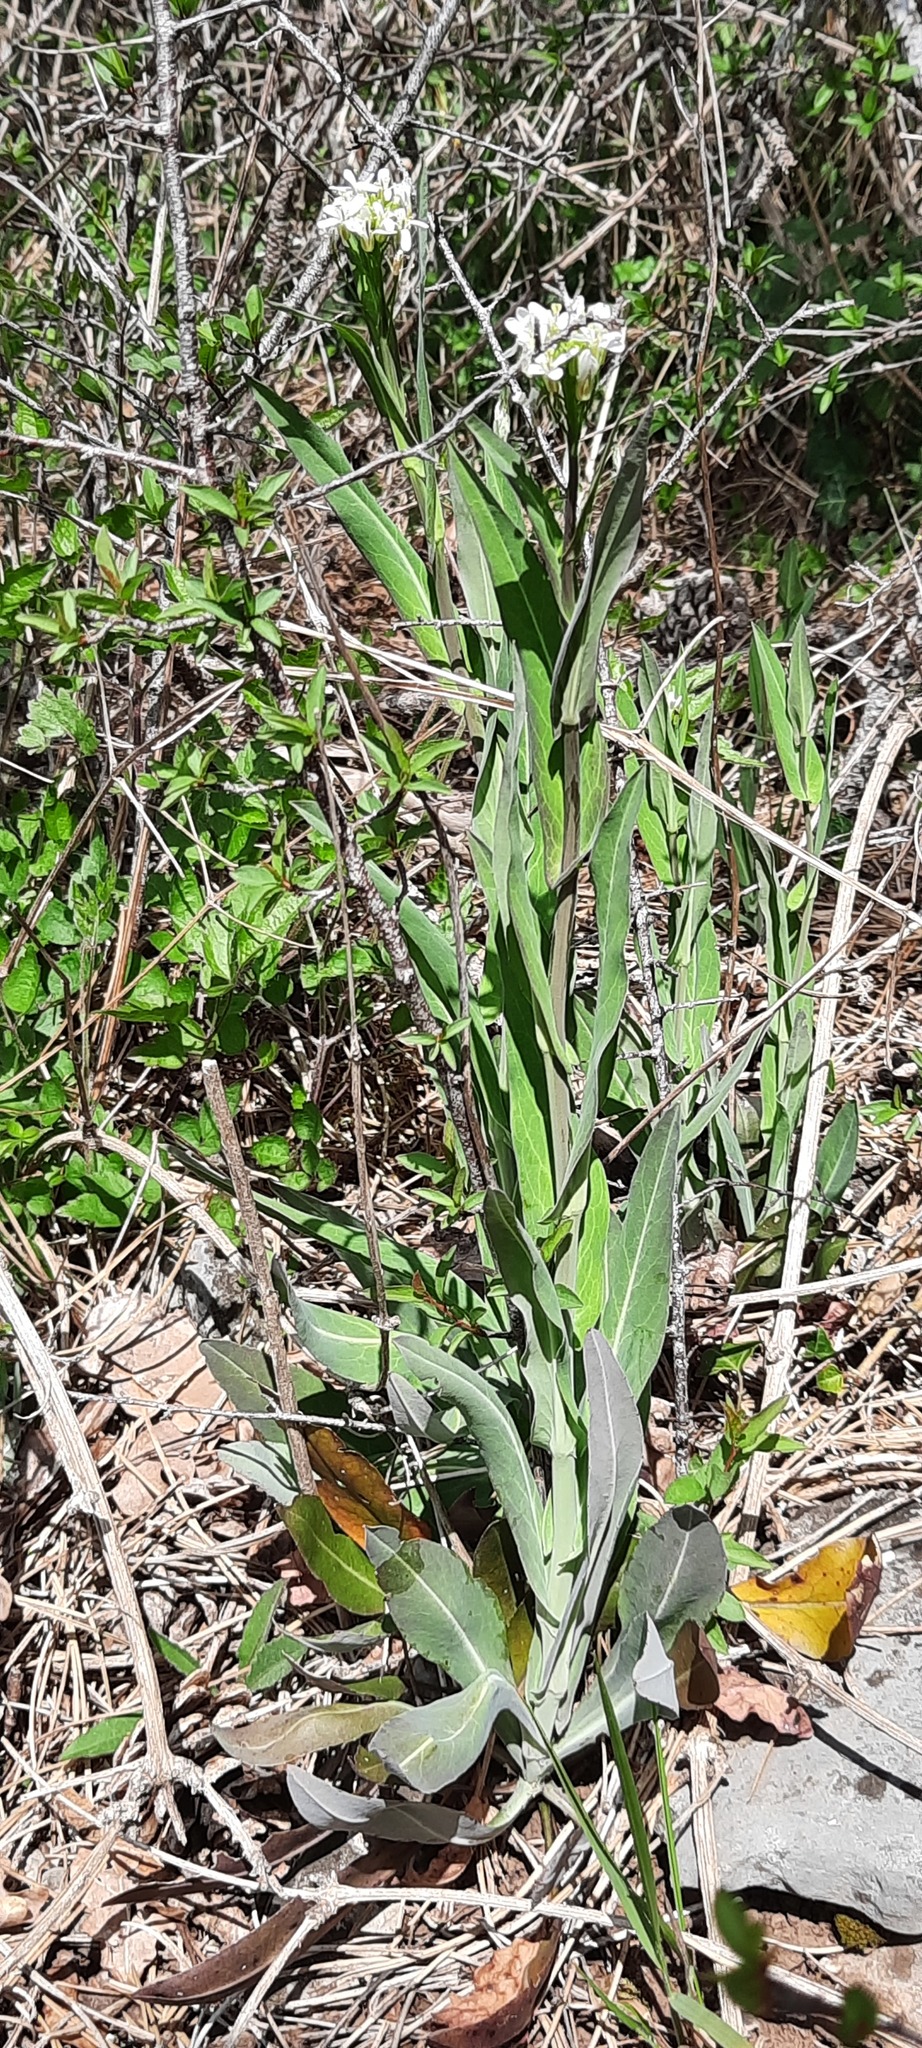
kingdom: Plantae
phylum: Tracheophyta
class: Magnoliopsida
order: Brassicales
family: Brassicaceae
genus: Arabis
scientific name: Arabis hirsuta
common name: Hairy rock-cress
